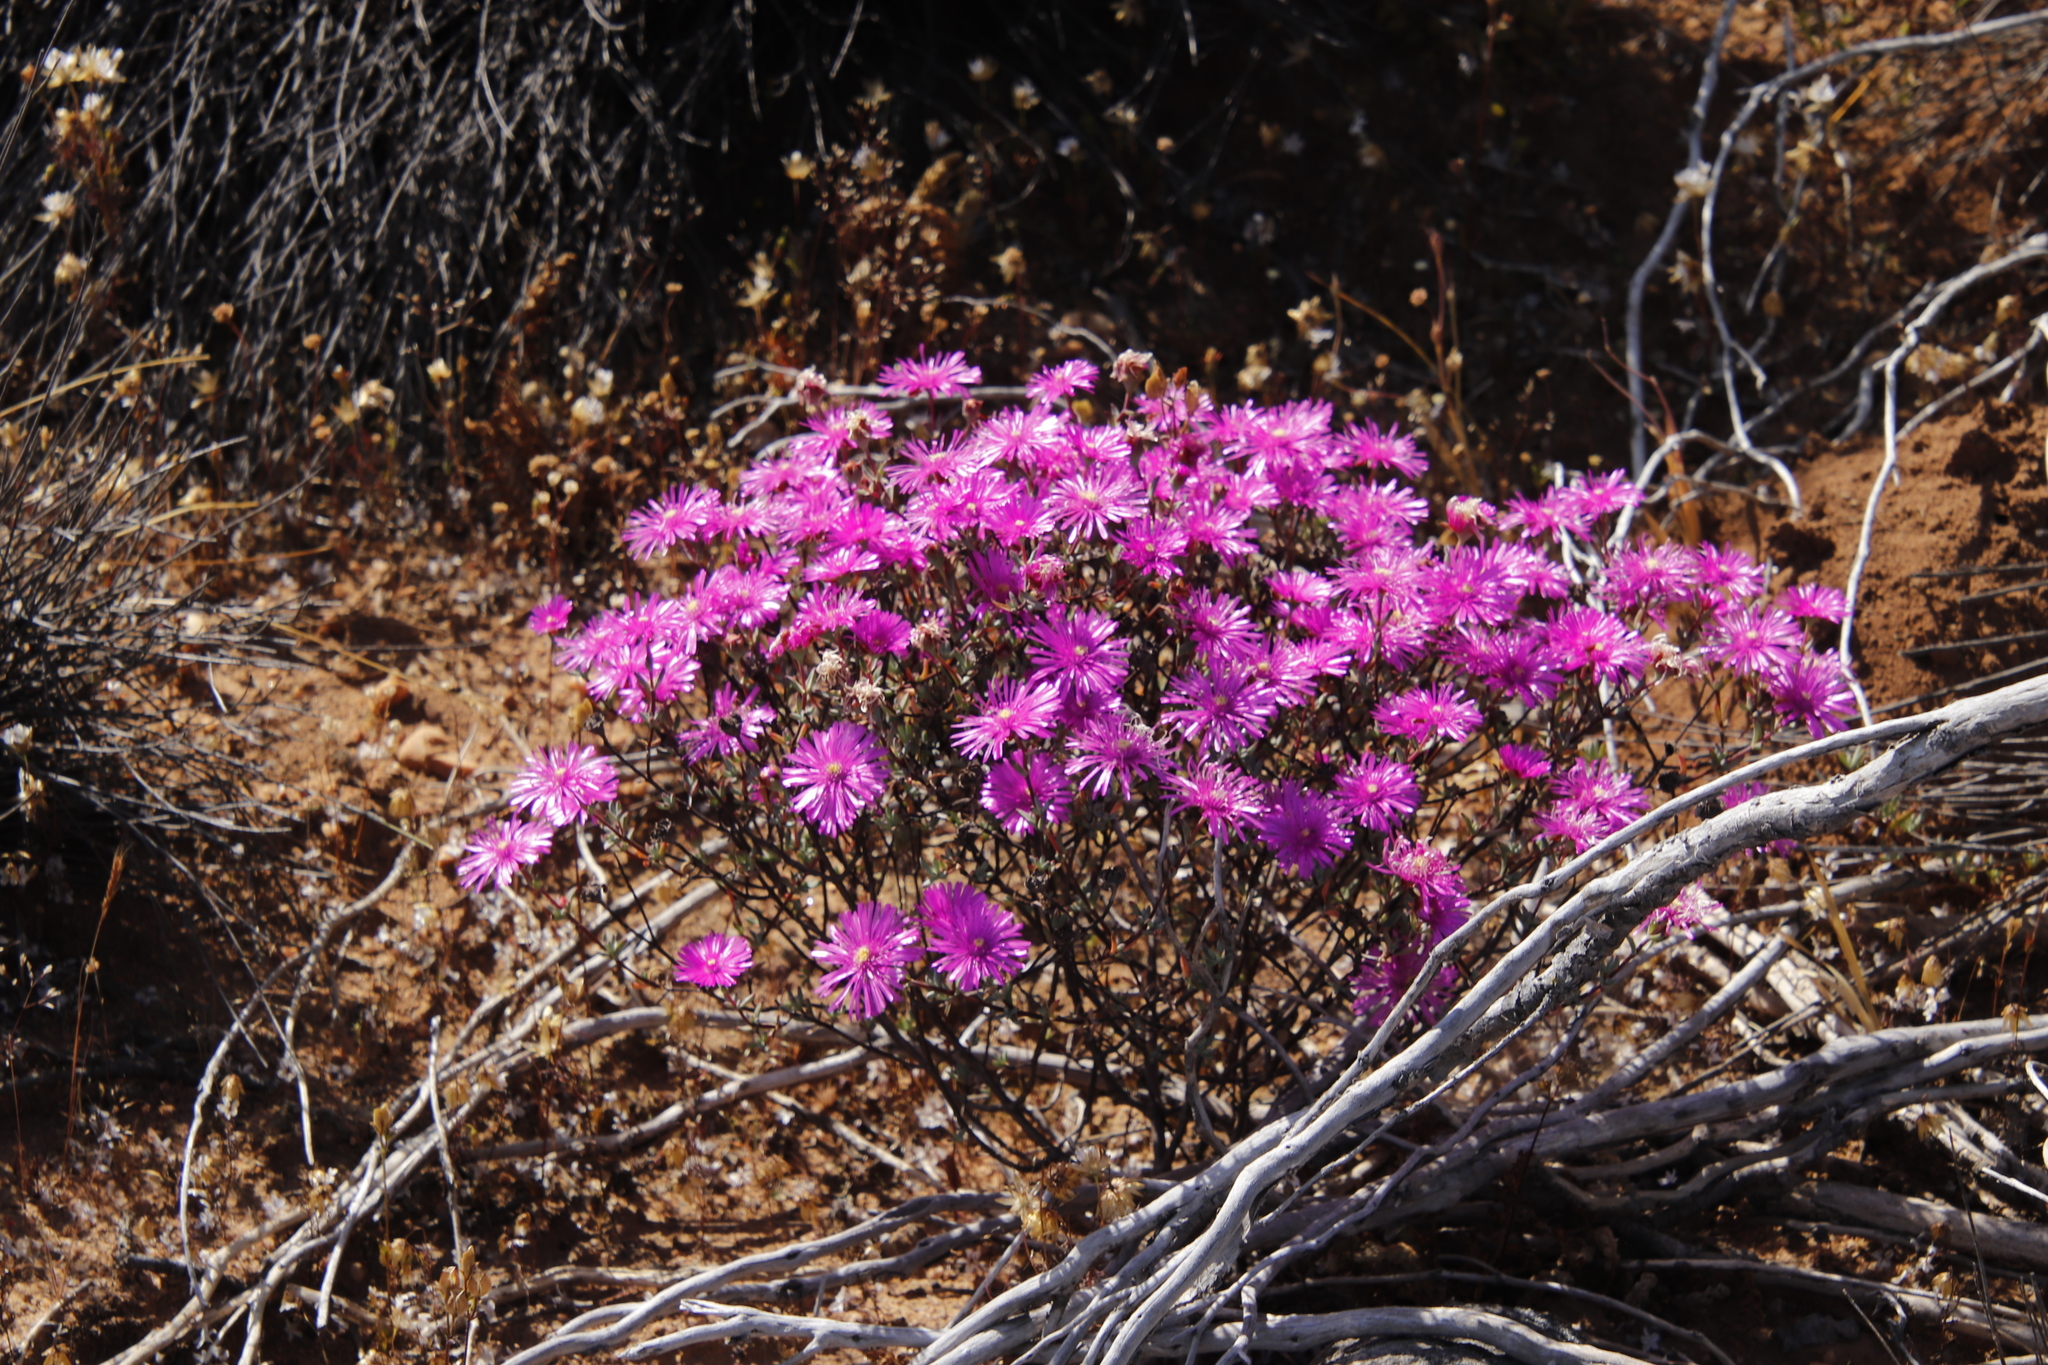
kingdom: Plantae
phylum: Tracheophyta
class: Magnoliopsida
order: Caryophyllales
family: Aizoaceae
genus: Lampranthus
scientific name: Lampranthus pakhuisensis
